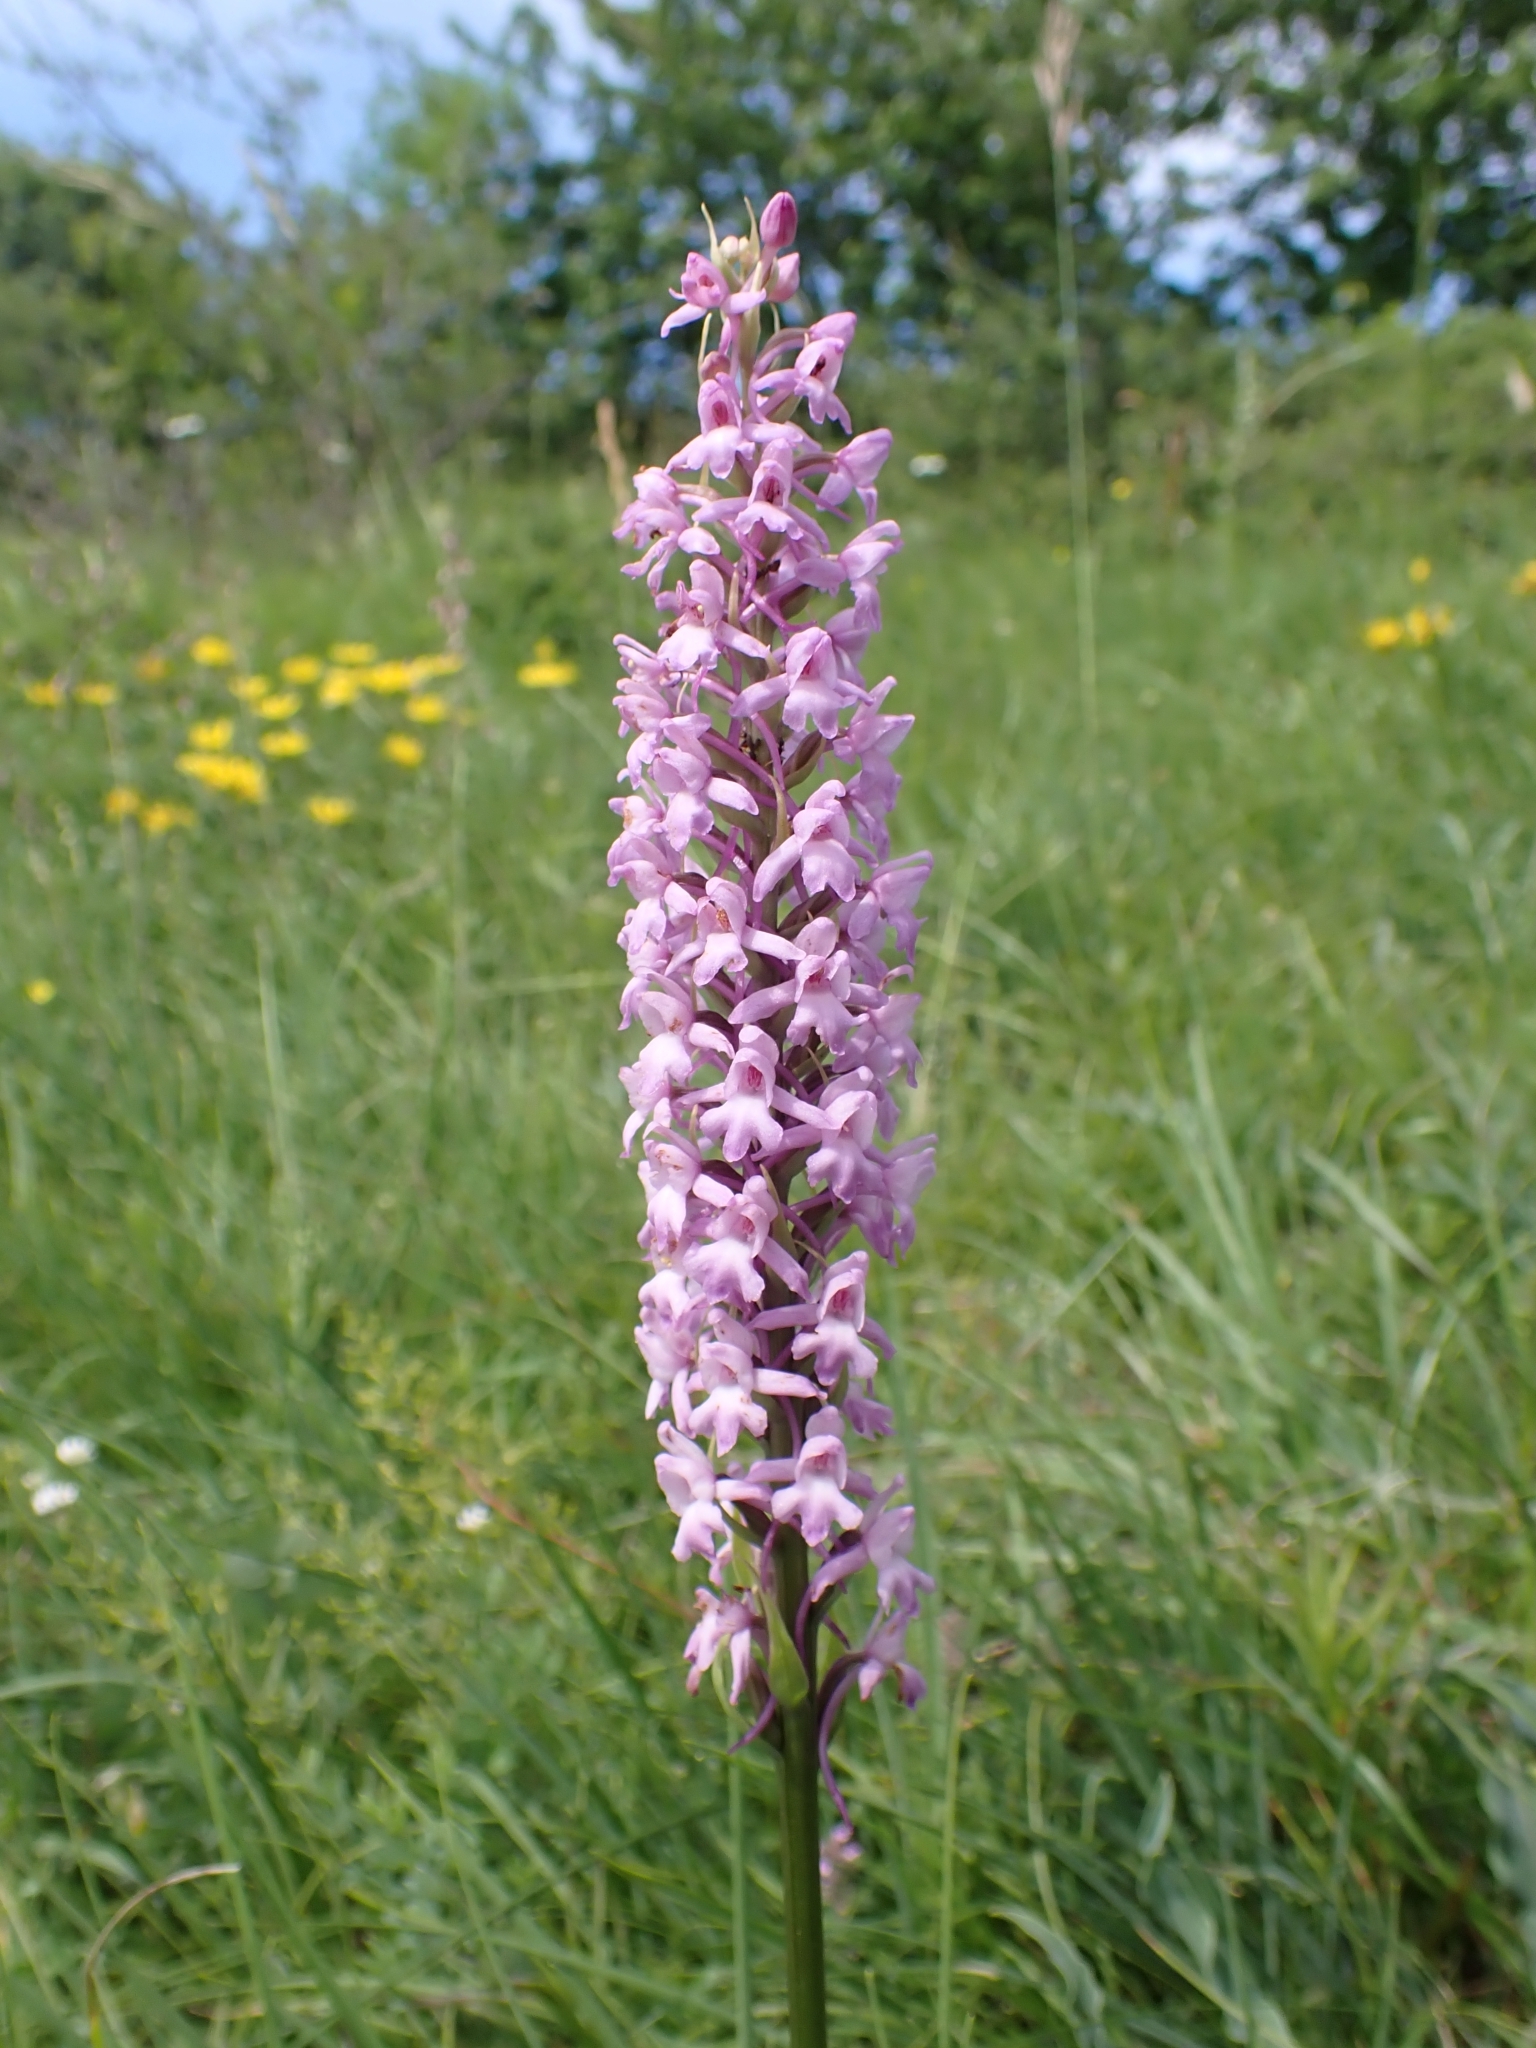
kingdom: Plantae
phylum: Tracheophyta
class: Liliopsida
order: Asparagales
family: Orchidaceae
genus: Gymnadenia
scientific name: Gymnadenia conopsea
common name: Fragrant orchid
